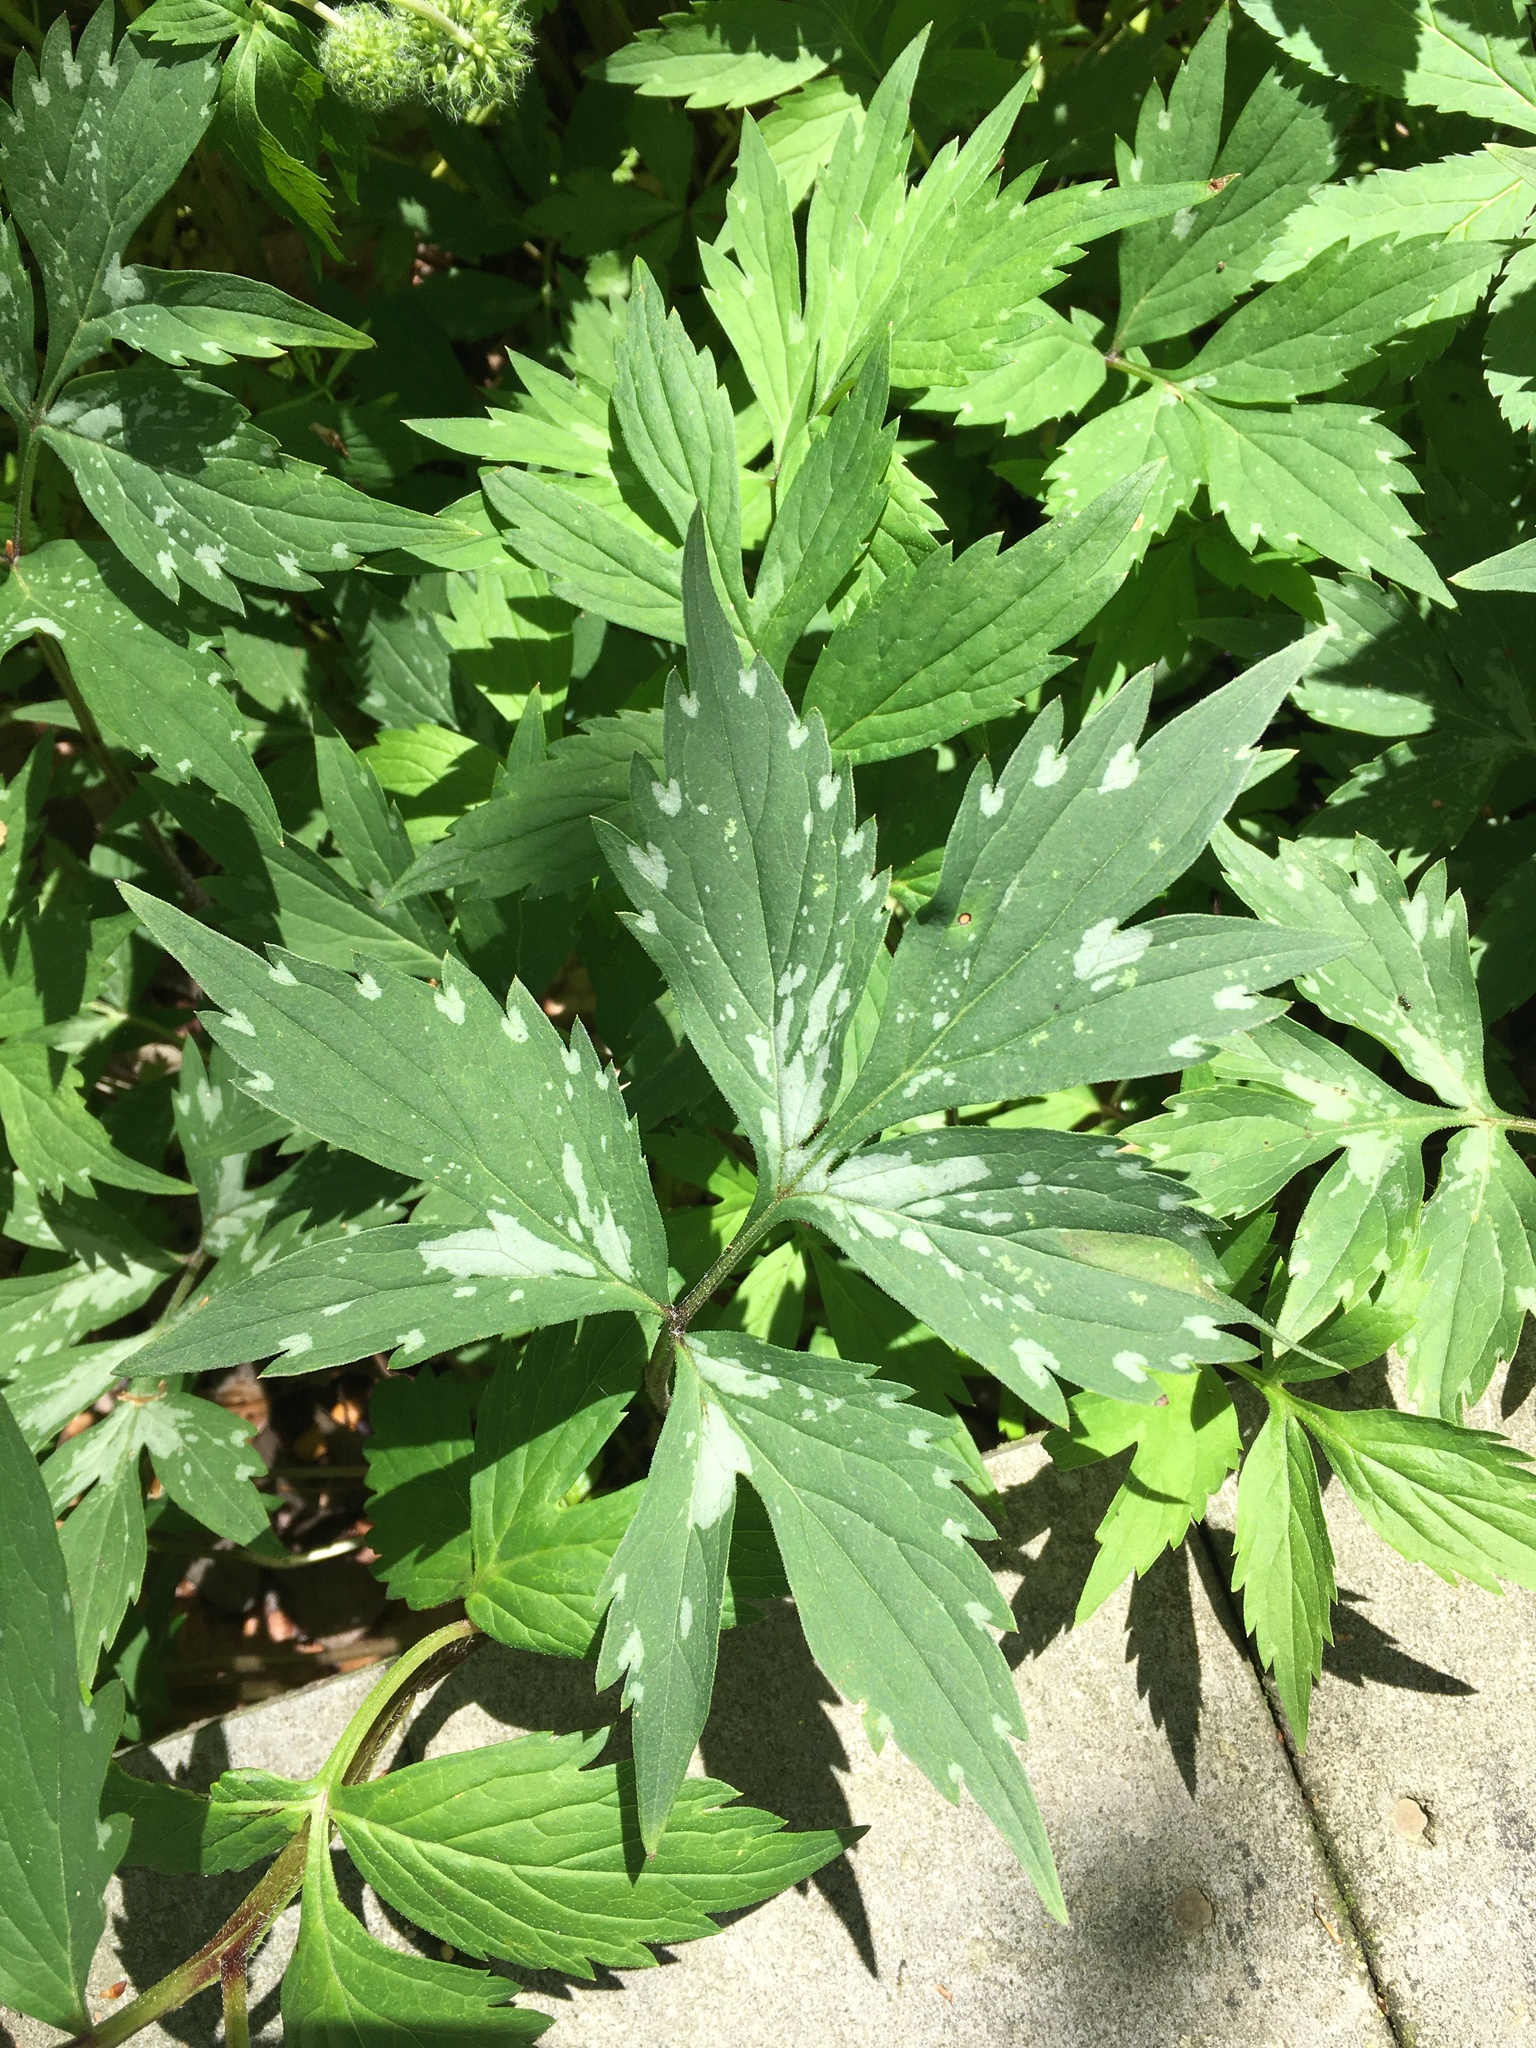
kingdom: Plantae
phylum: Tracheophyta
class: Magnoliopsida
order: Boraginales
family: Hydrophyllaceae
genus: Hydrophyllum
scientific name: Hydrophyllum virginianum
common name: Virginia waterleaf
